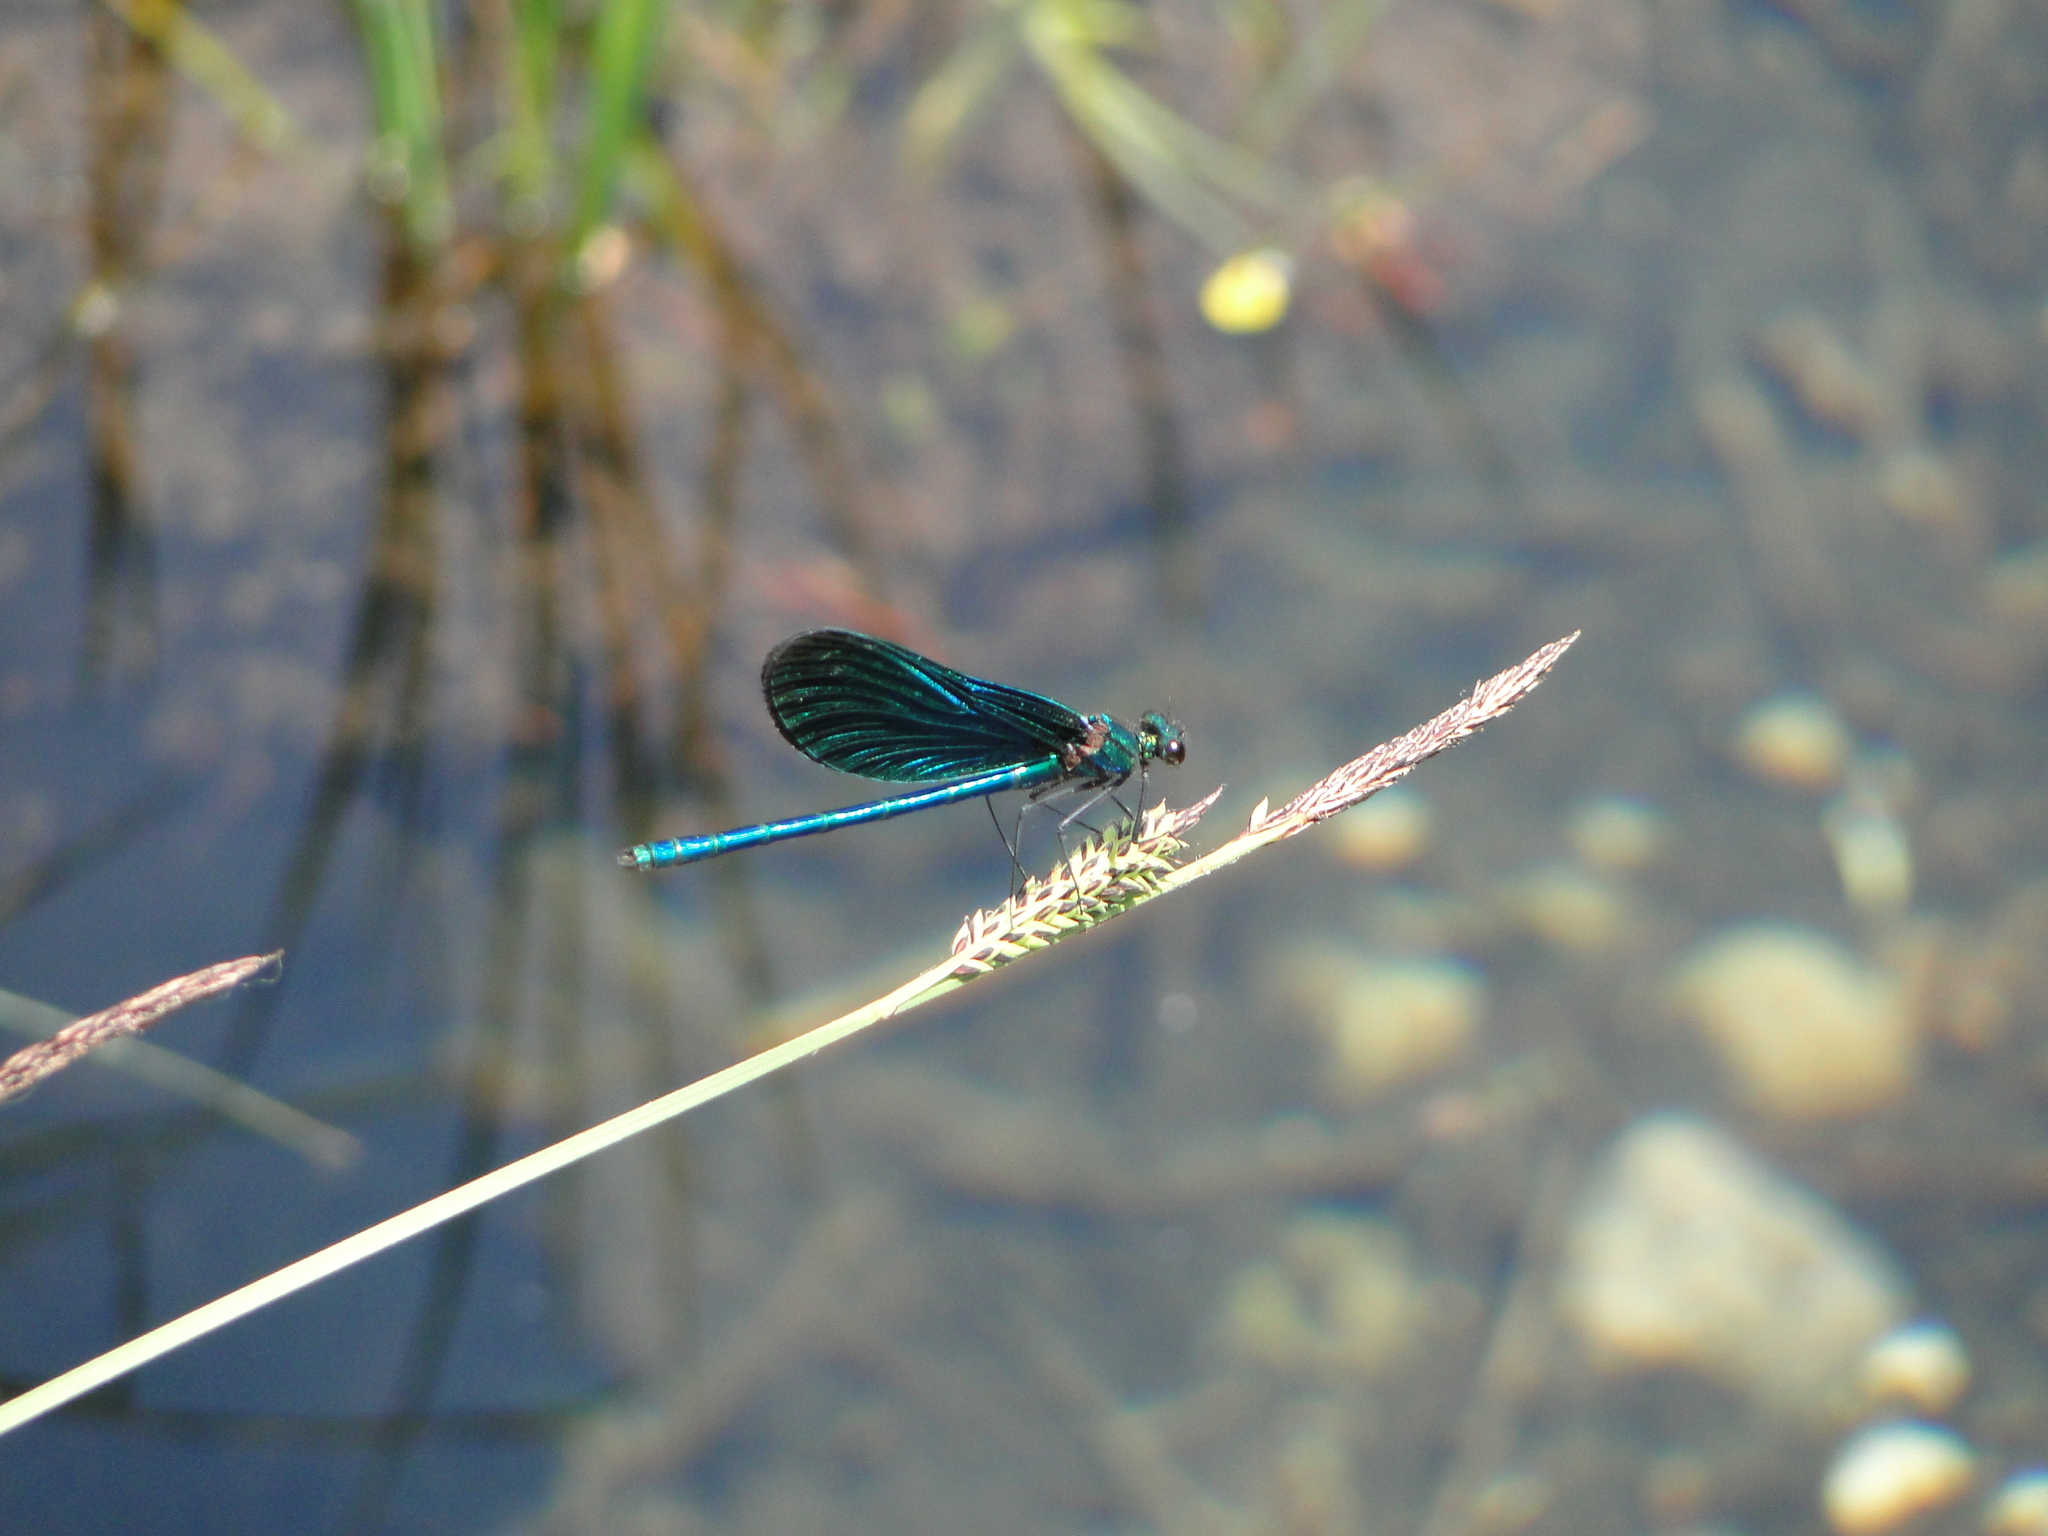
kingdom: Animalia
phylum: Arthropoda
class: Insecta
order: Odonata
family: Calopterygidae
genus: Calopteryx
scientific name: Calopteryx virgo
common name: Beautiful demoiselle
